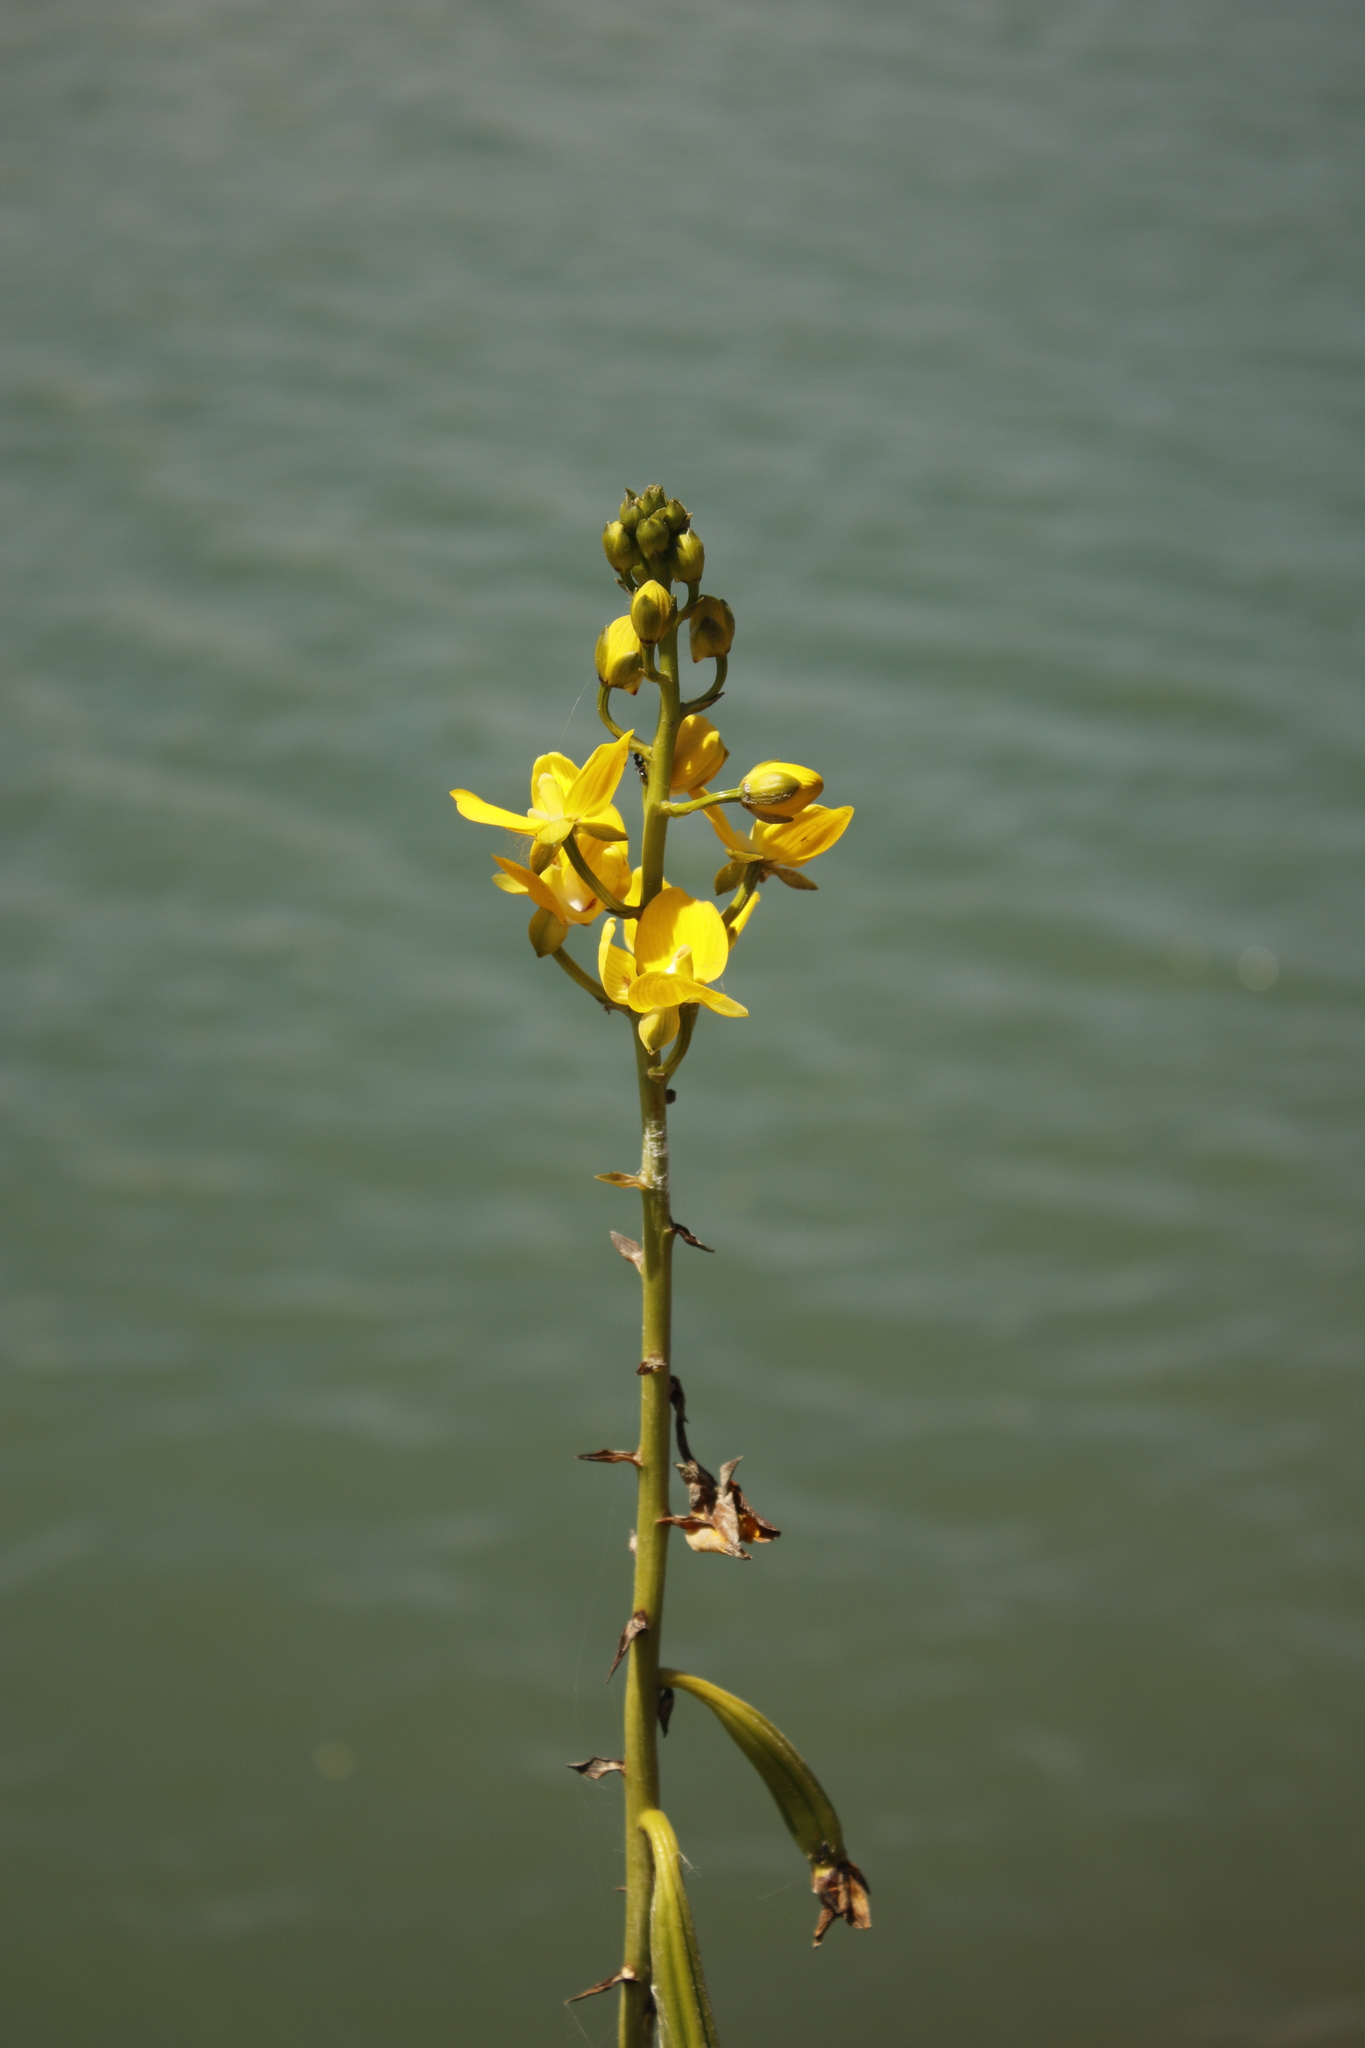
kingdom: Plantae
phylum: Tracheophyta
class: Liliopsida
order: Asparagales
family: Orchidaceae
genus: Eulophia
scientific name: Eulophia speciosa
